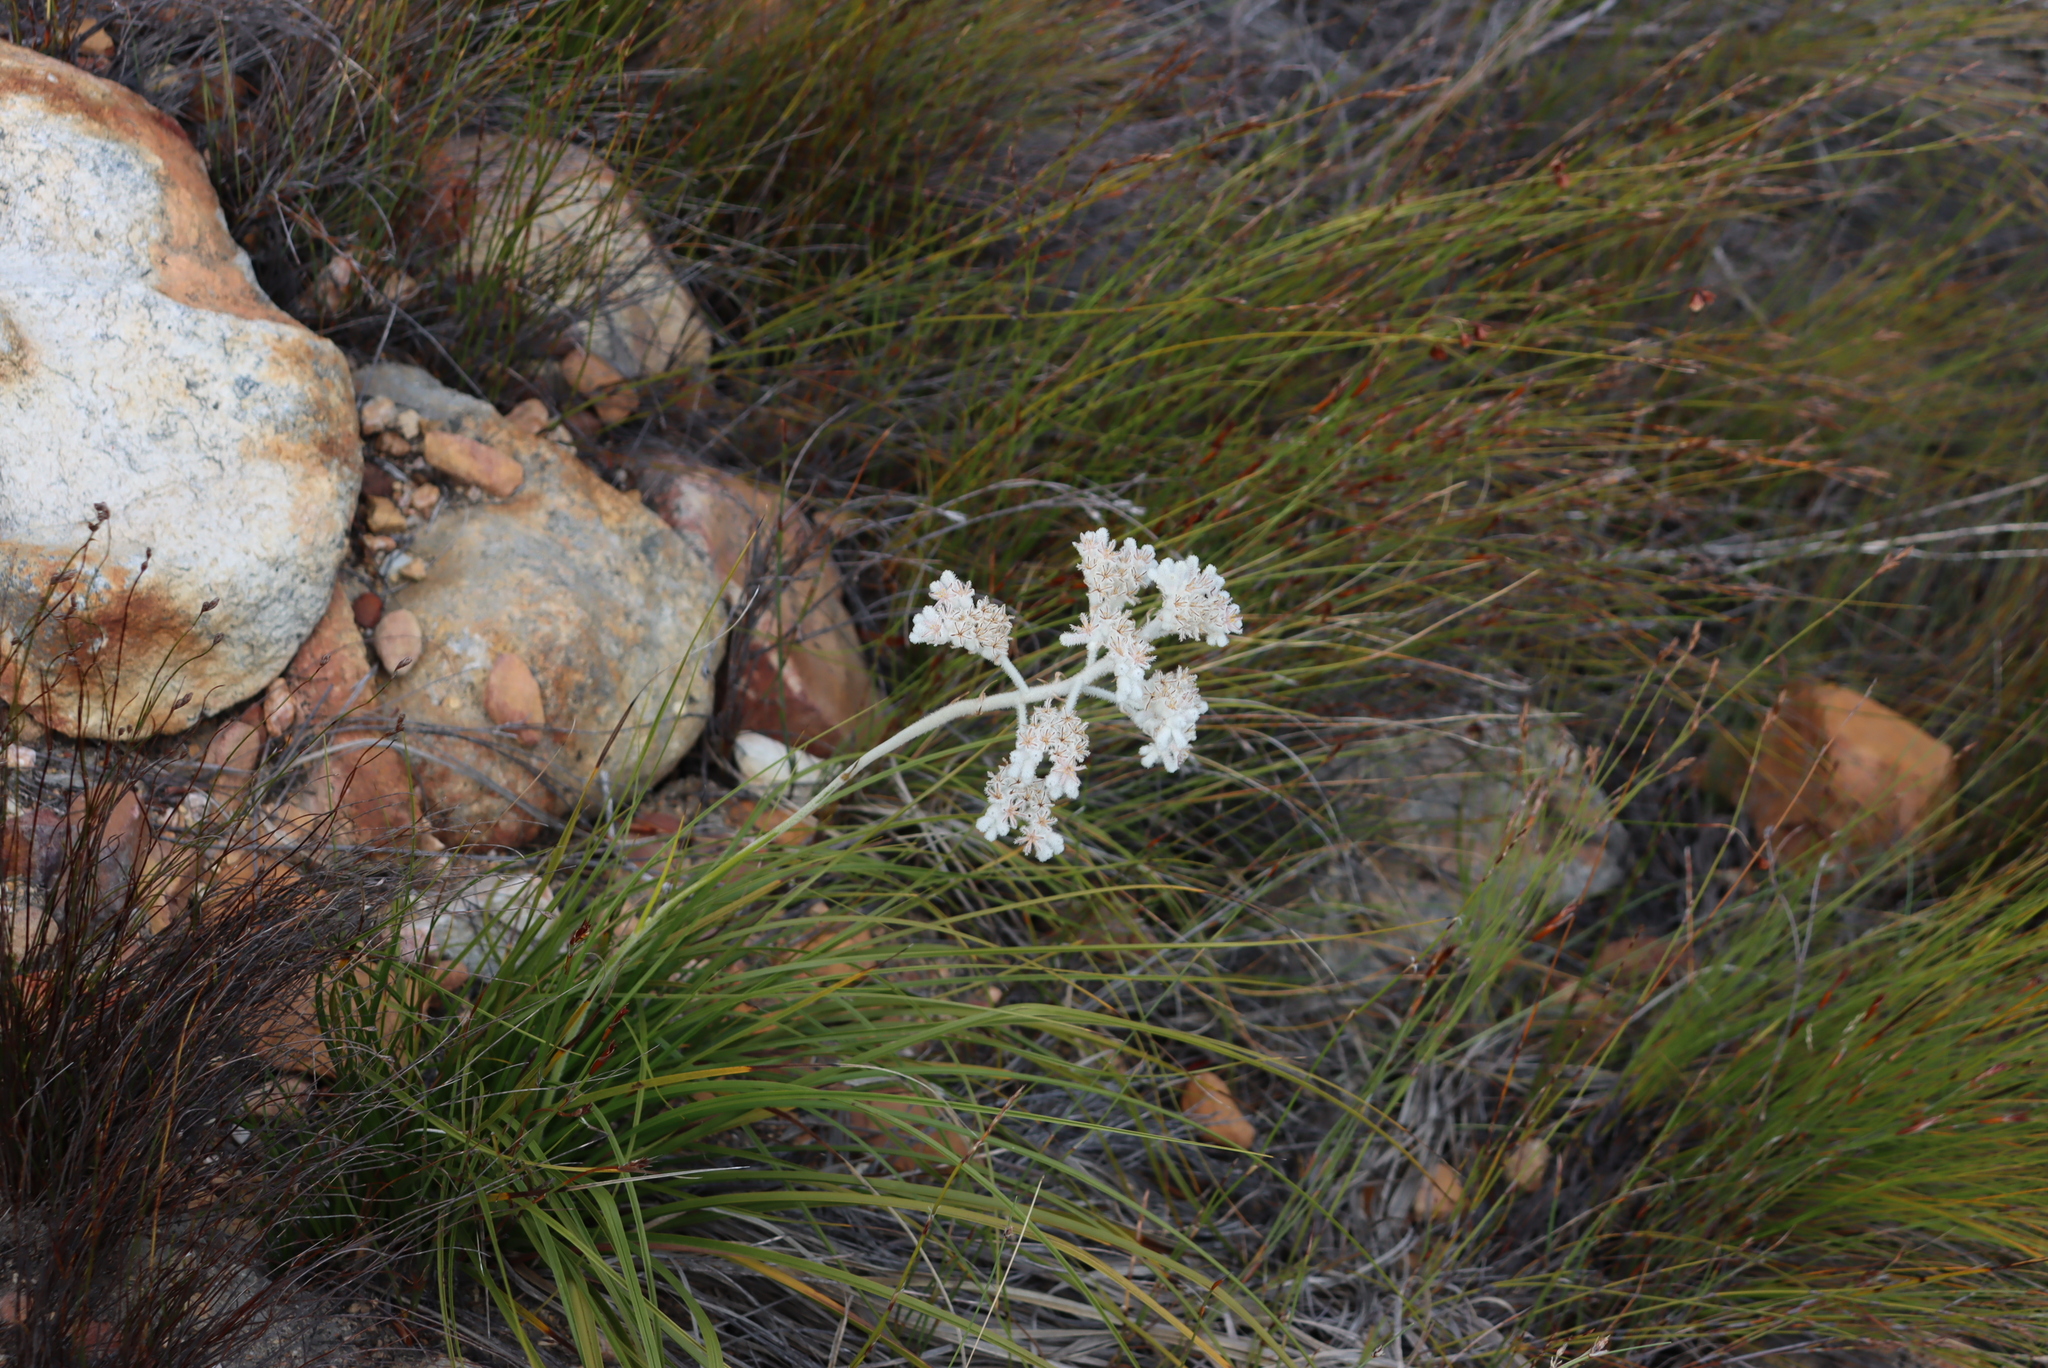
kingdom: Plantae
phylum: Tracheophyta
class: Liliopsida
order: Asparagales
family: Lanariaceae
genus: Lanaria
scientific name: Lanaria lanata
